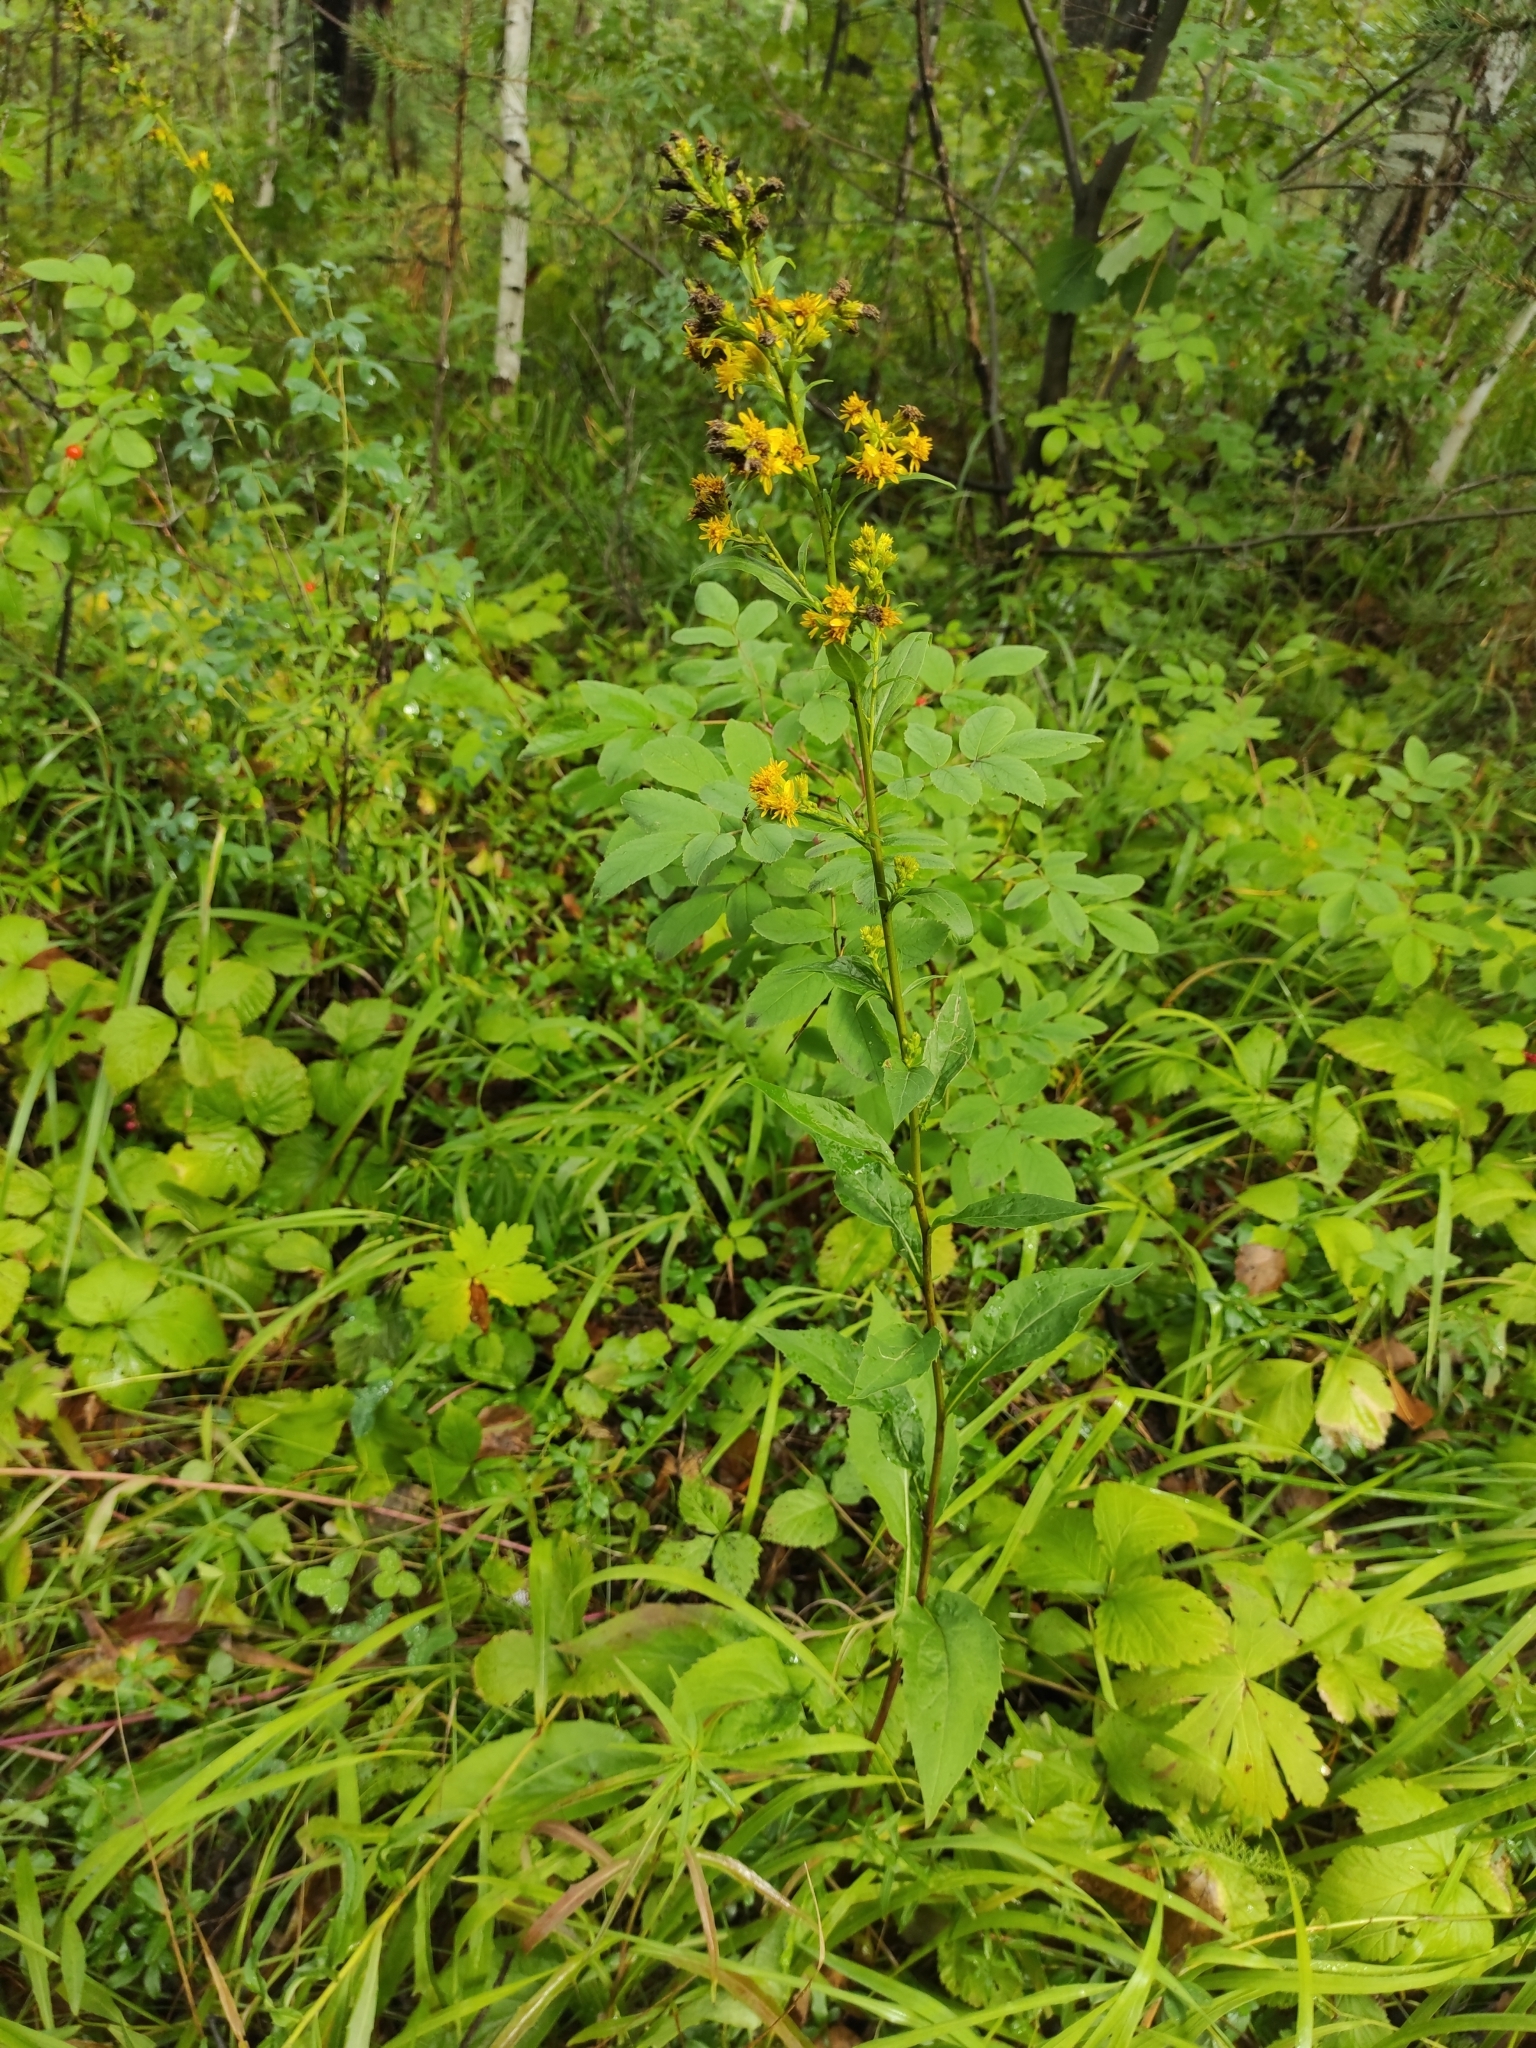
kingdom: Plantae
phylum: Tracheophyta
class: Magnoliopsida
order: Asterales
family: Asteraceae
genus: Solidago
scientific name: Solidago virgaurea
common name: Goldenrod
